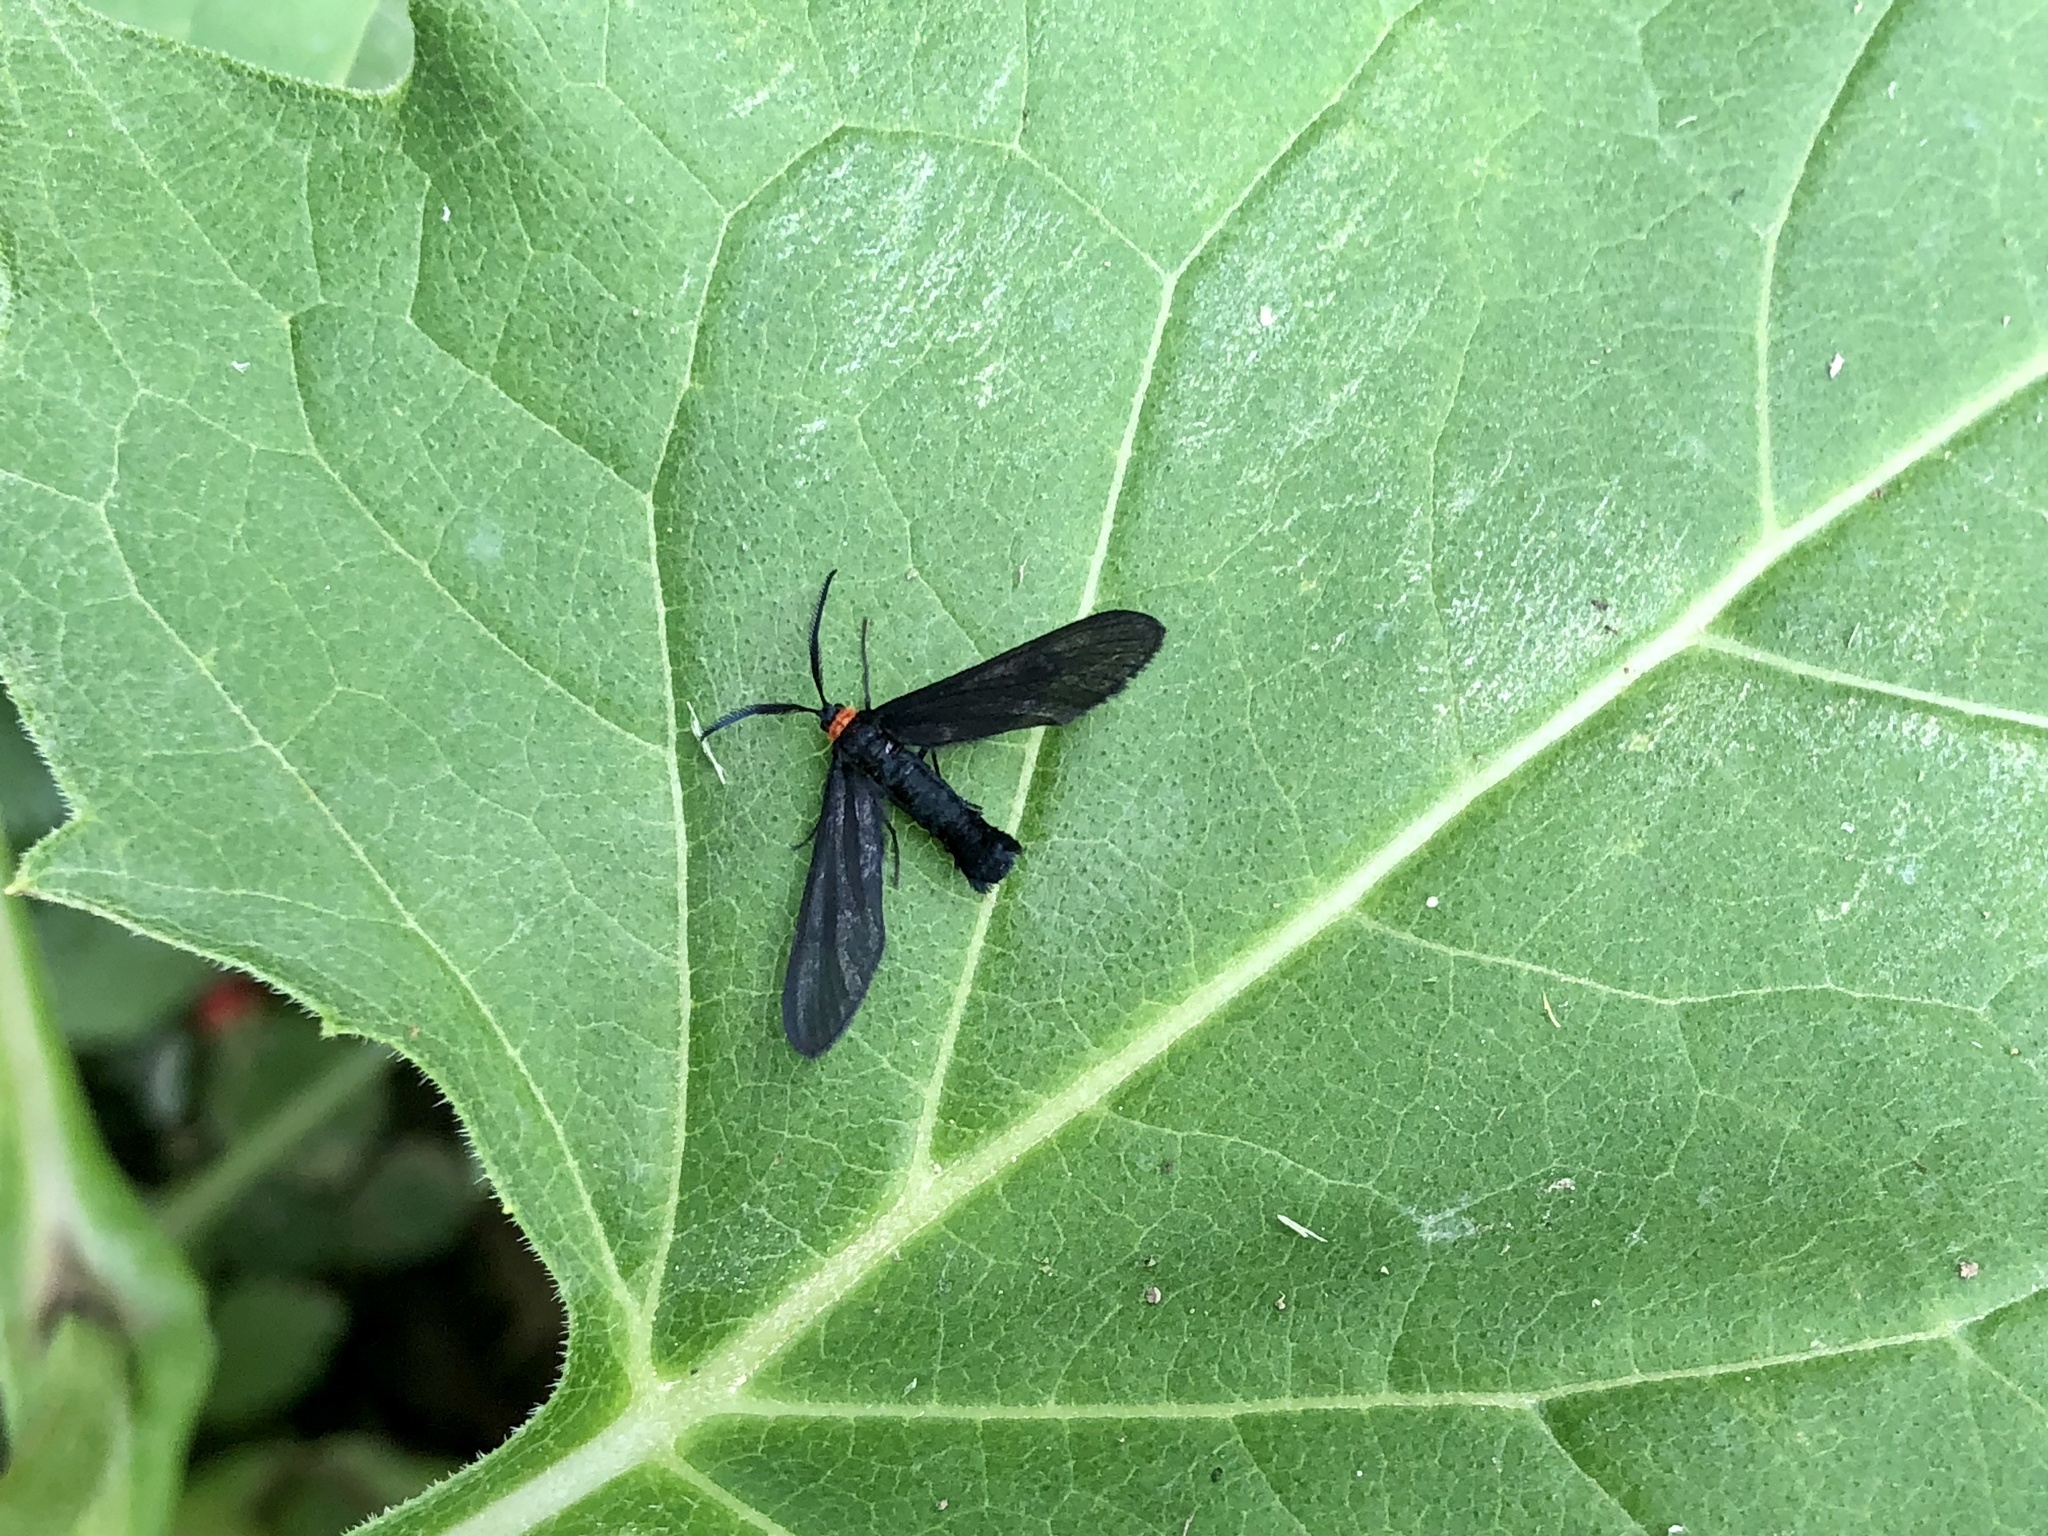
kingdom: Animalia
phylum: Arthropoda
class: Insecta
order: Lepidoptera
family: Zygaenidae
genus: Harrisina
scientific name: Harrisina americana
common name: Grapeleaf skeletonizer moth
